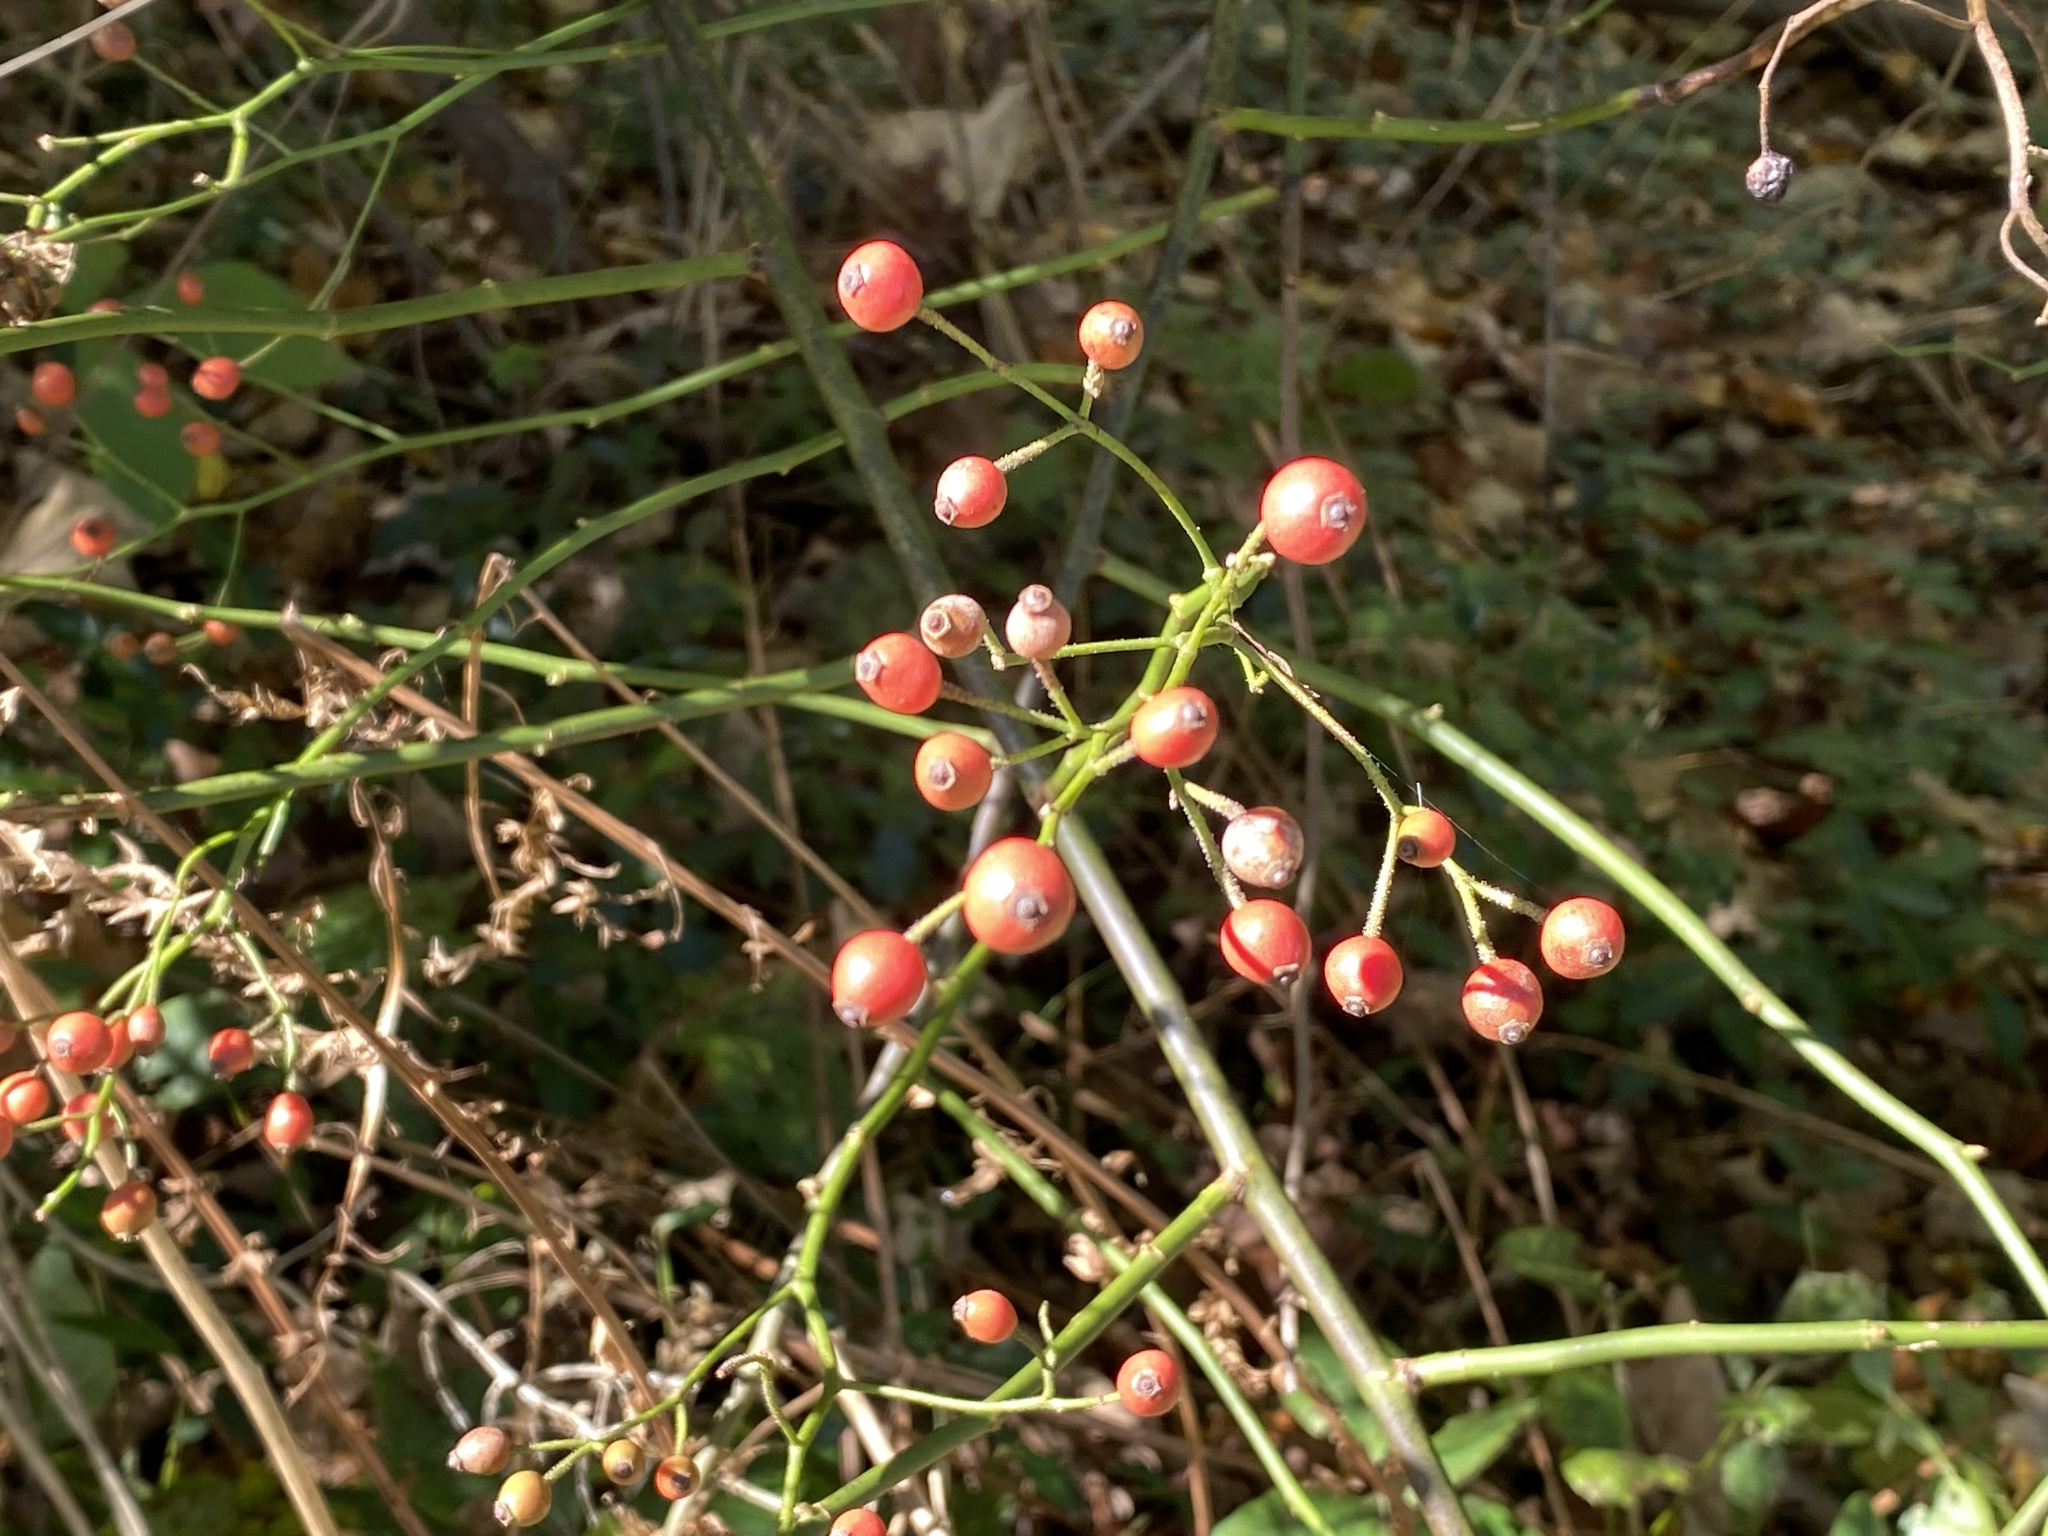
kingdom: Plantae
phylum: Tracheophyta
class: Magnoliopsida
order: Rosales
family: Rosaceae
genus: Rosa
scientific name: Rosa multiflora
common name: Multiflora rose
